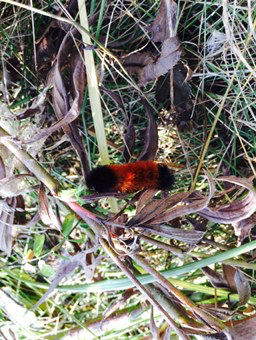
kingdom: Animalia
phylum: Arthropoda
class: Insecta
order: Lepidoptera
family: Erebidae
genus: Pyrrharctia
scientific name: Pyrrharctia isabella
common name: Isabella tiger moth
